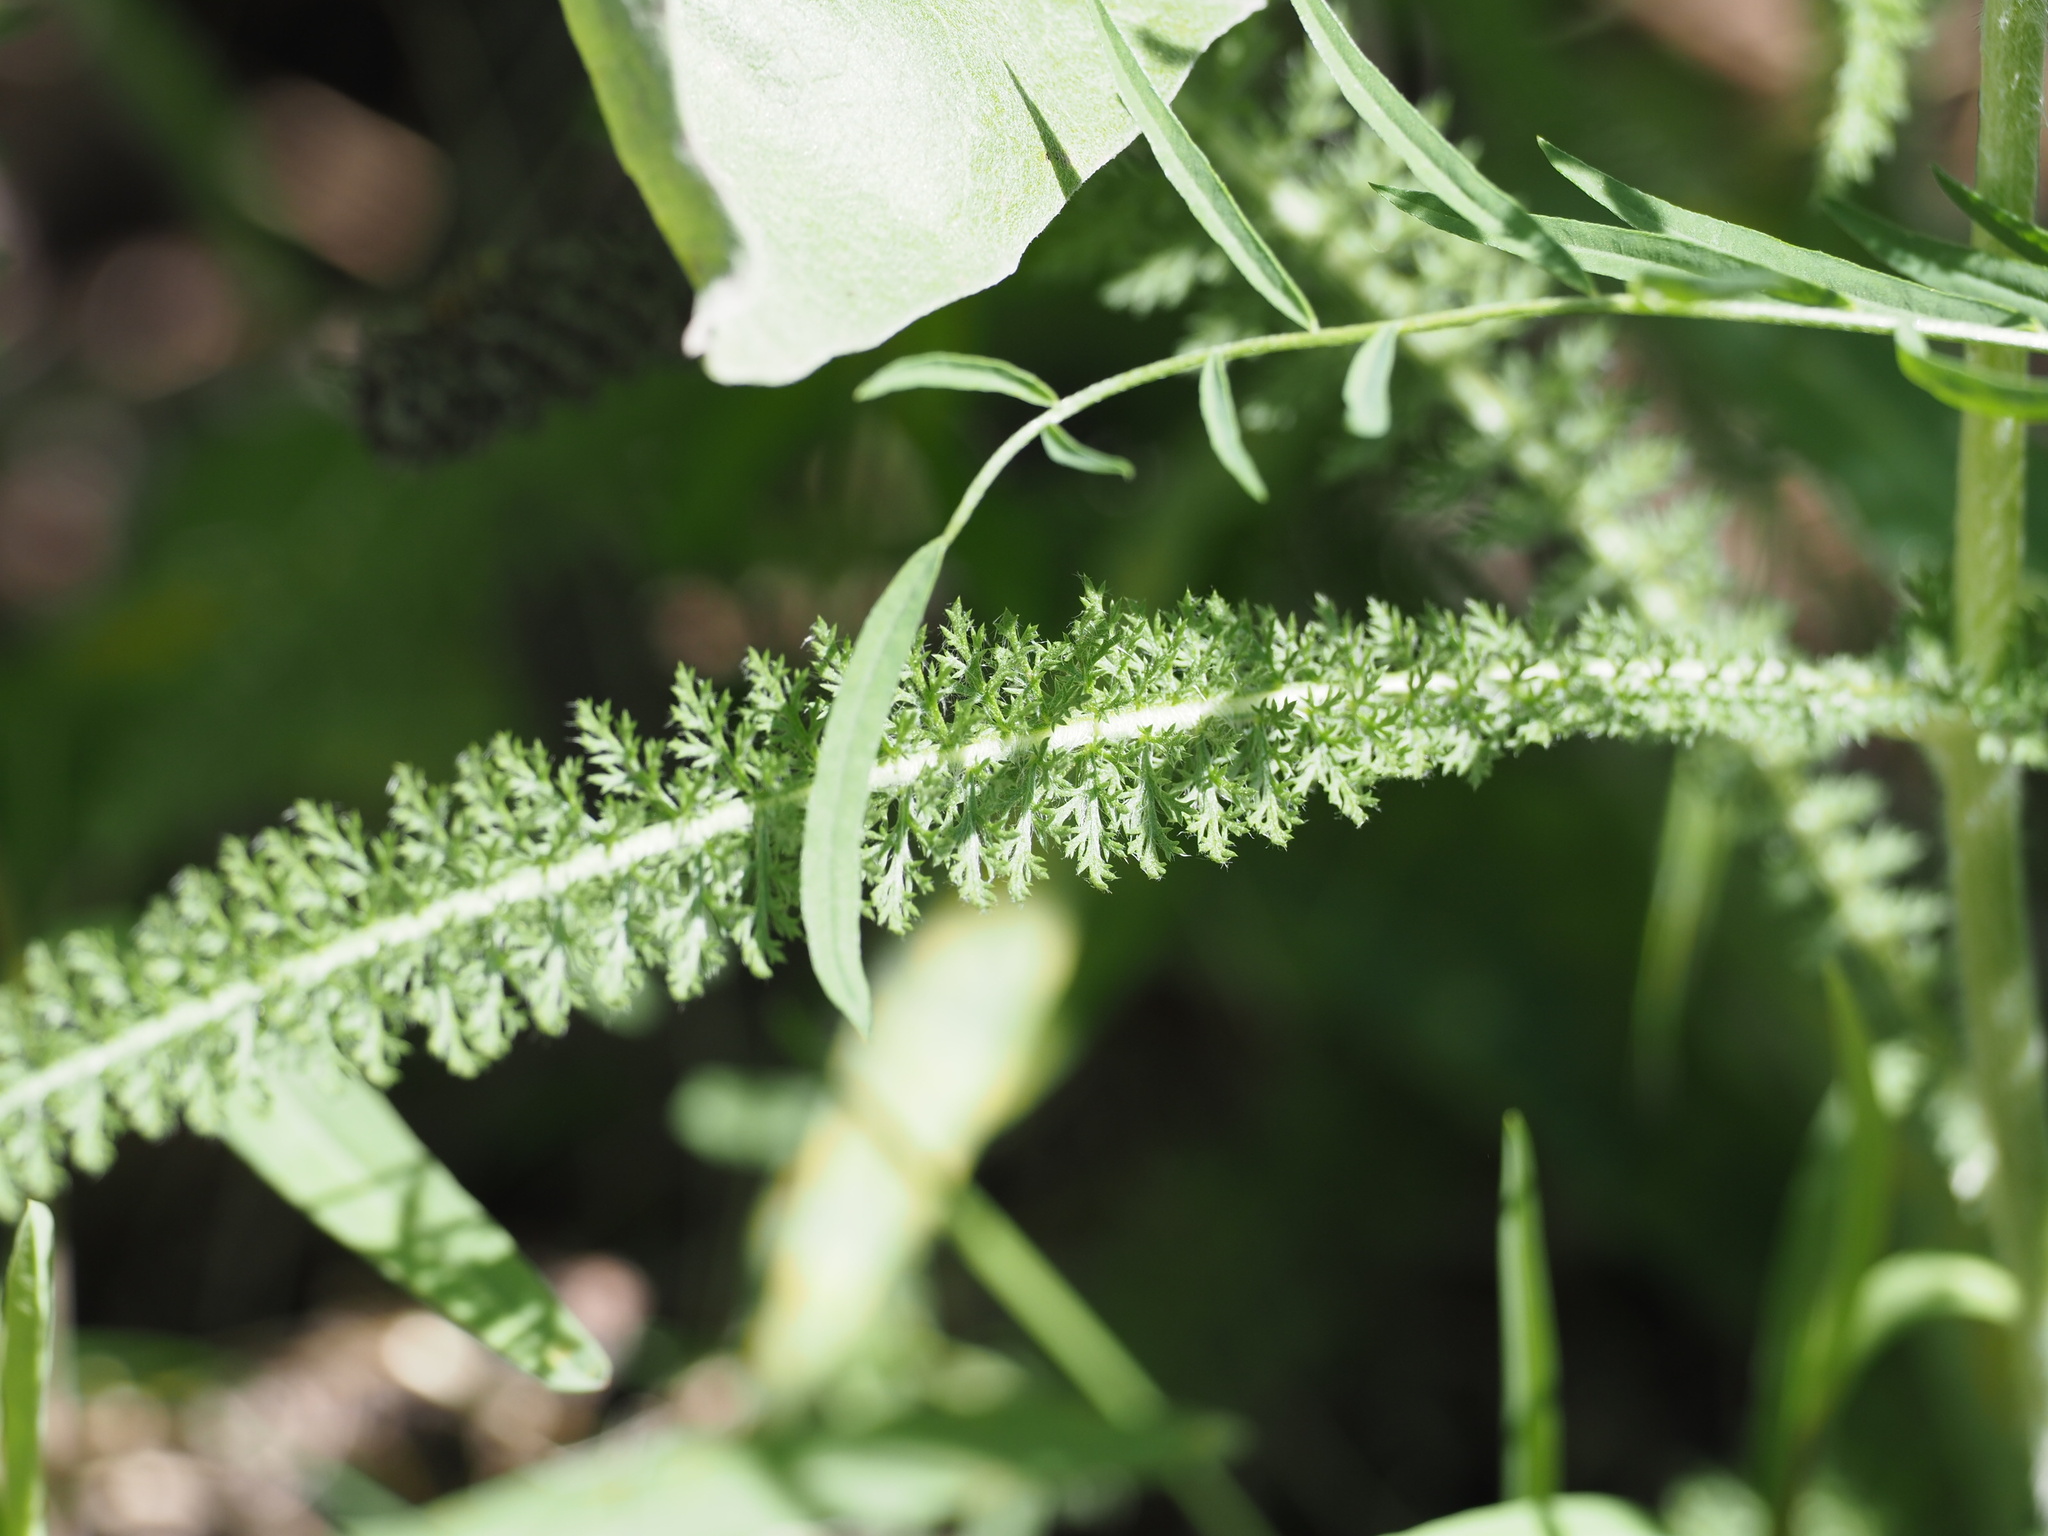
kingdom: Plantae
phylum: Tracheophyta
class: Magnoliopsida
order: Asterales
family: Asteraceae
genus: Achillea
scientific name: Achillea millefolium
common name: Yarrow
